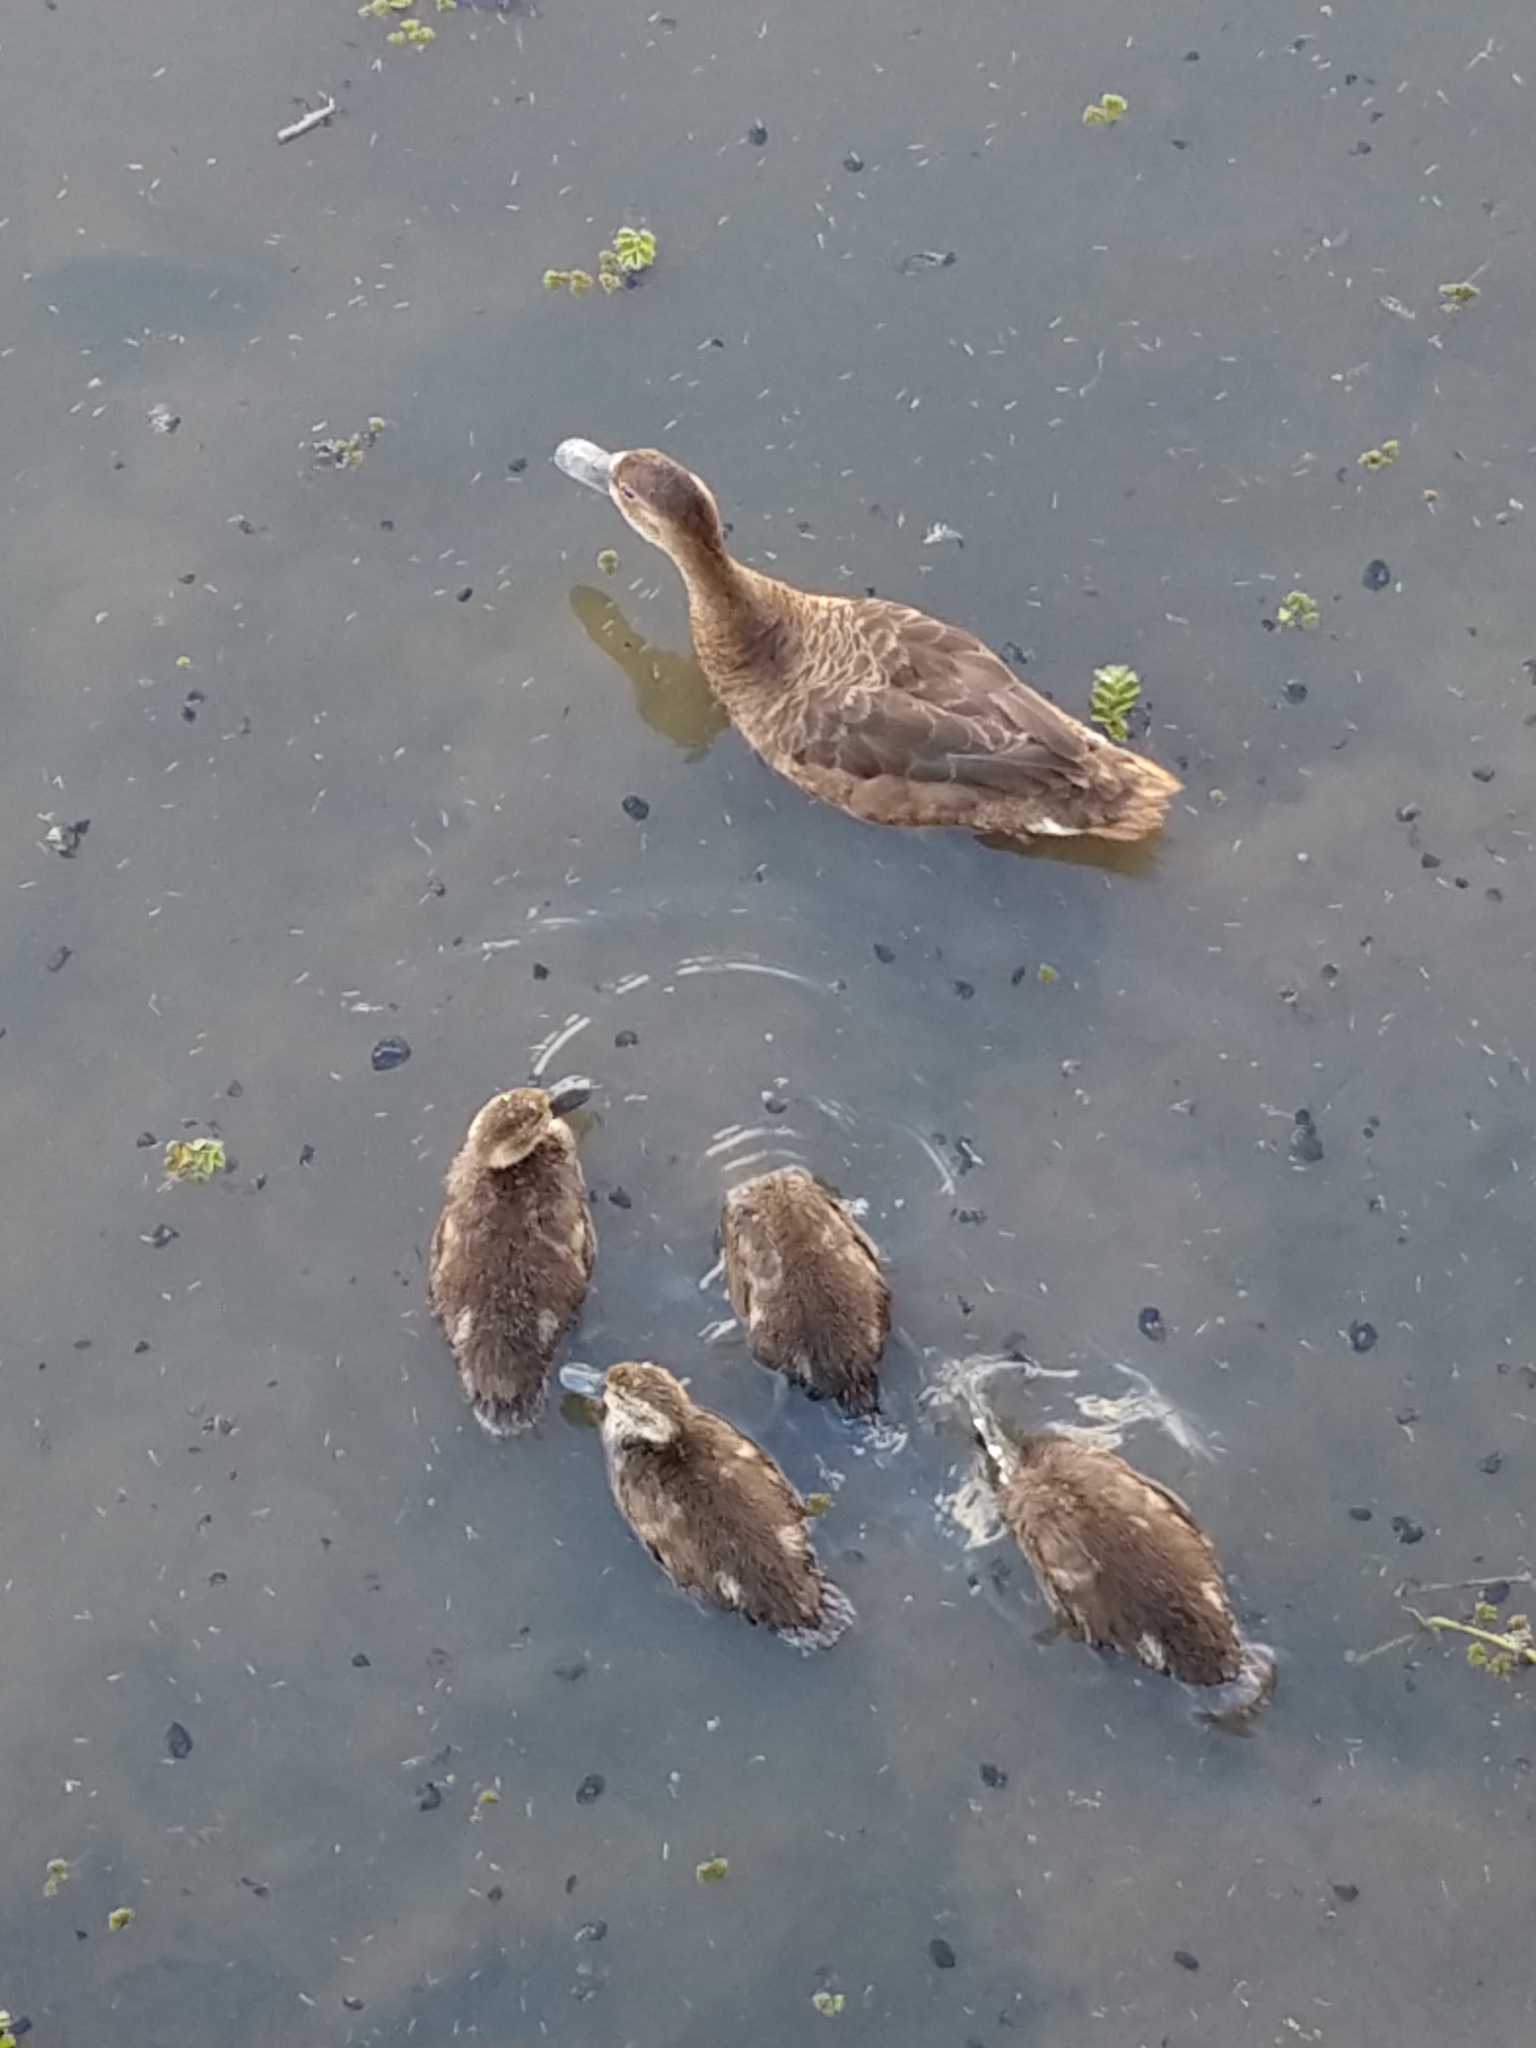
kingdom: Animalia
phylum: Chordata
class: Aves
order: Anseriformes
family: Anatidae
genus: Netta
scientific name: Netta peposaca
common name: Rosy-billed pochard
